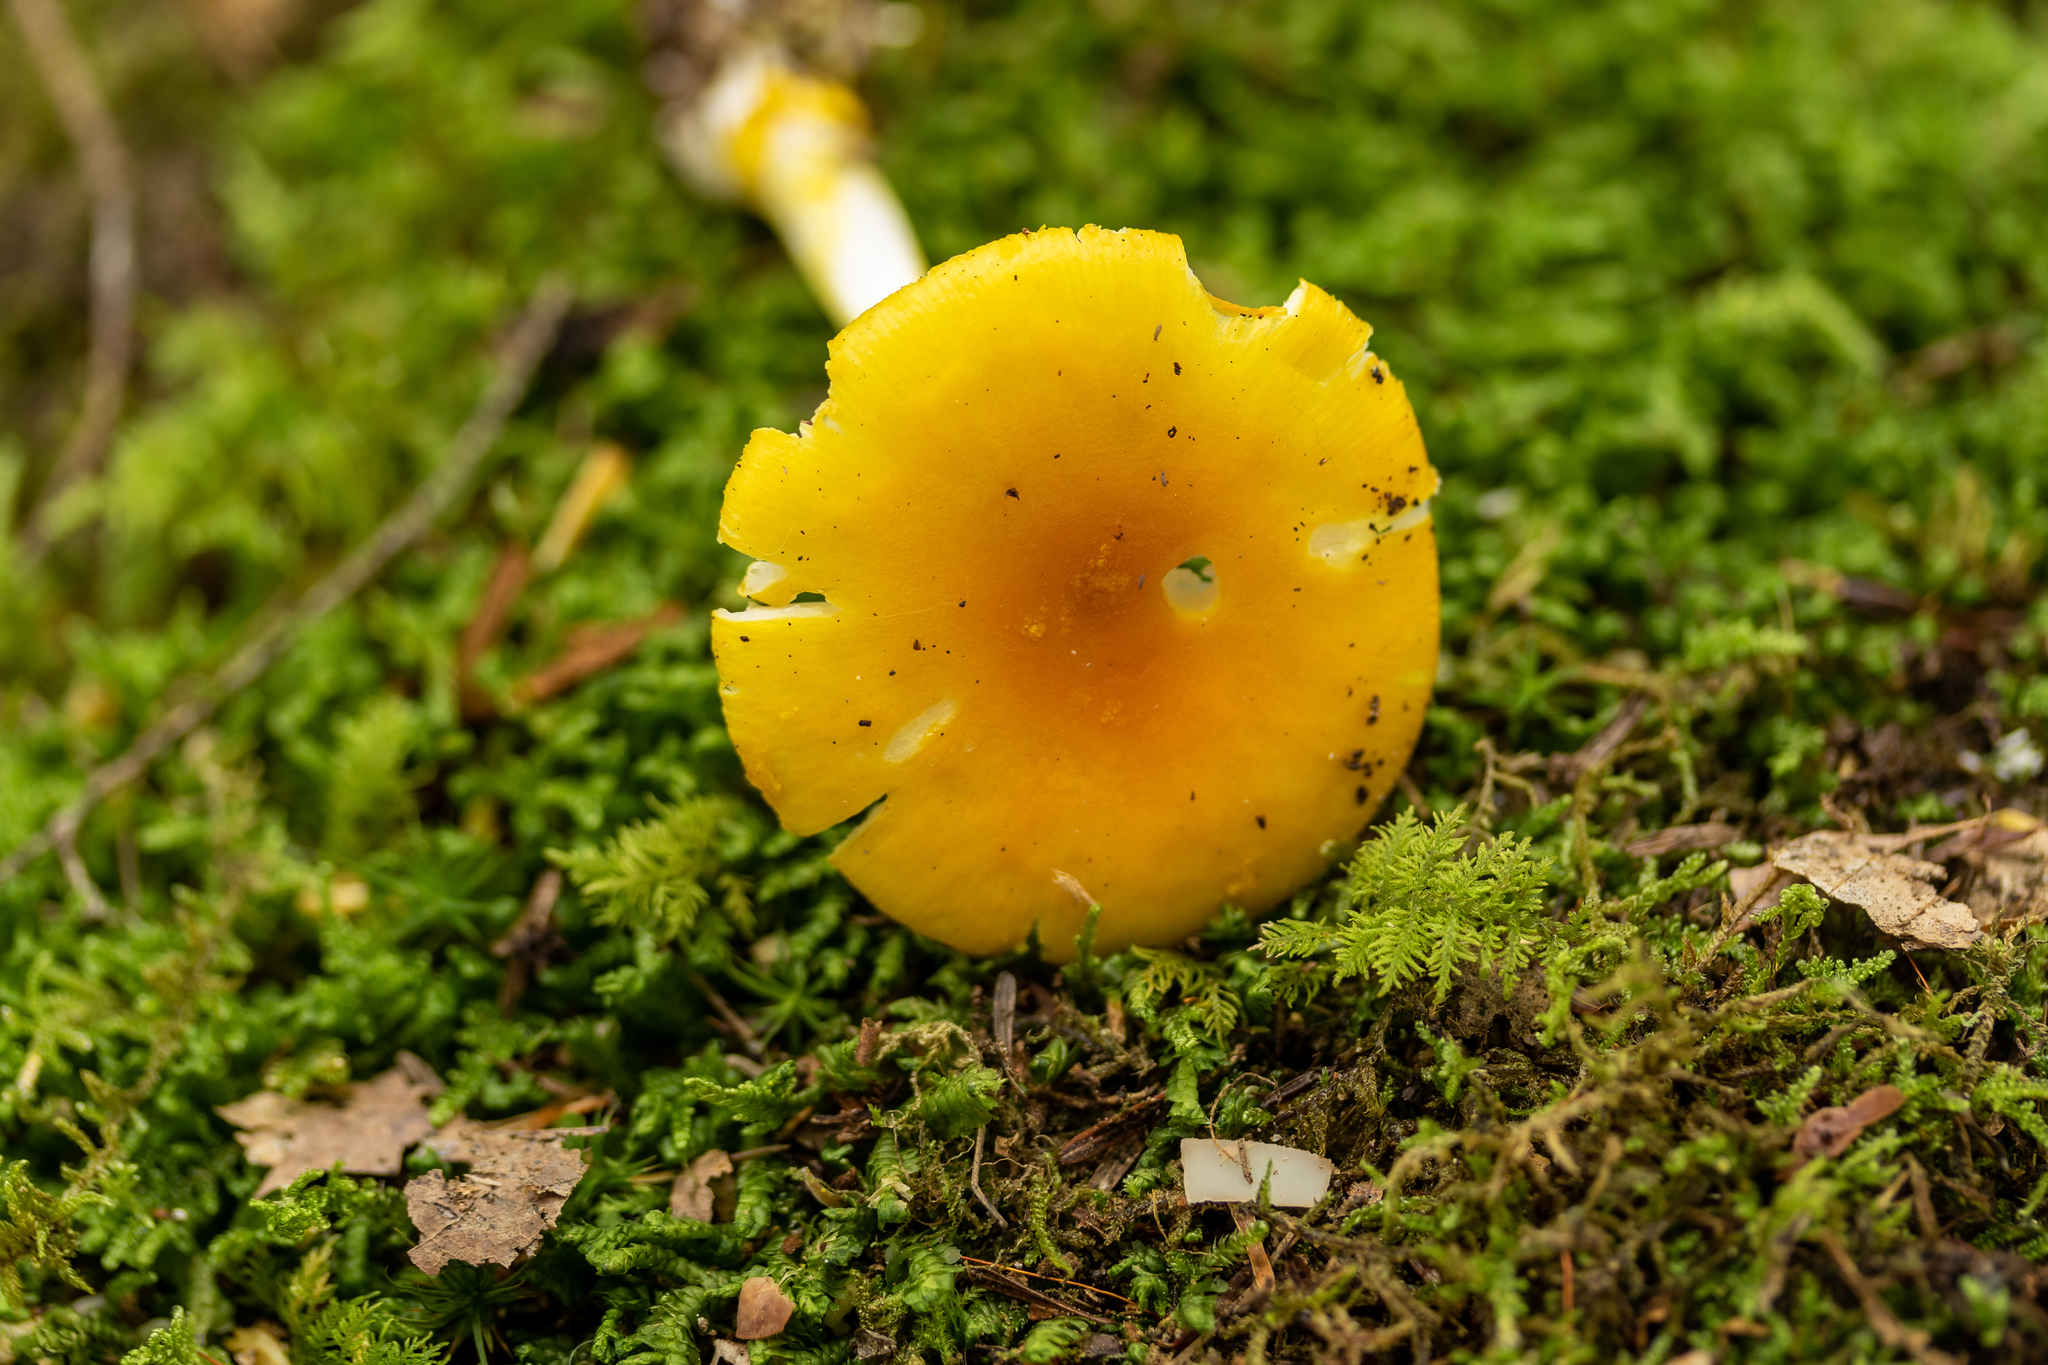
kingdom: Fungi
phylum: Basidiomycota
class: Agaricomycetes
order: Agaricales
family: Amanitaceae
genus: Amanita
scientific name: Amanita flavoconia
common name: Yellow patches
